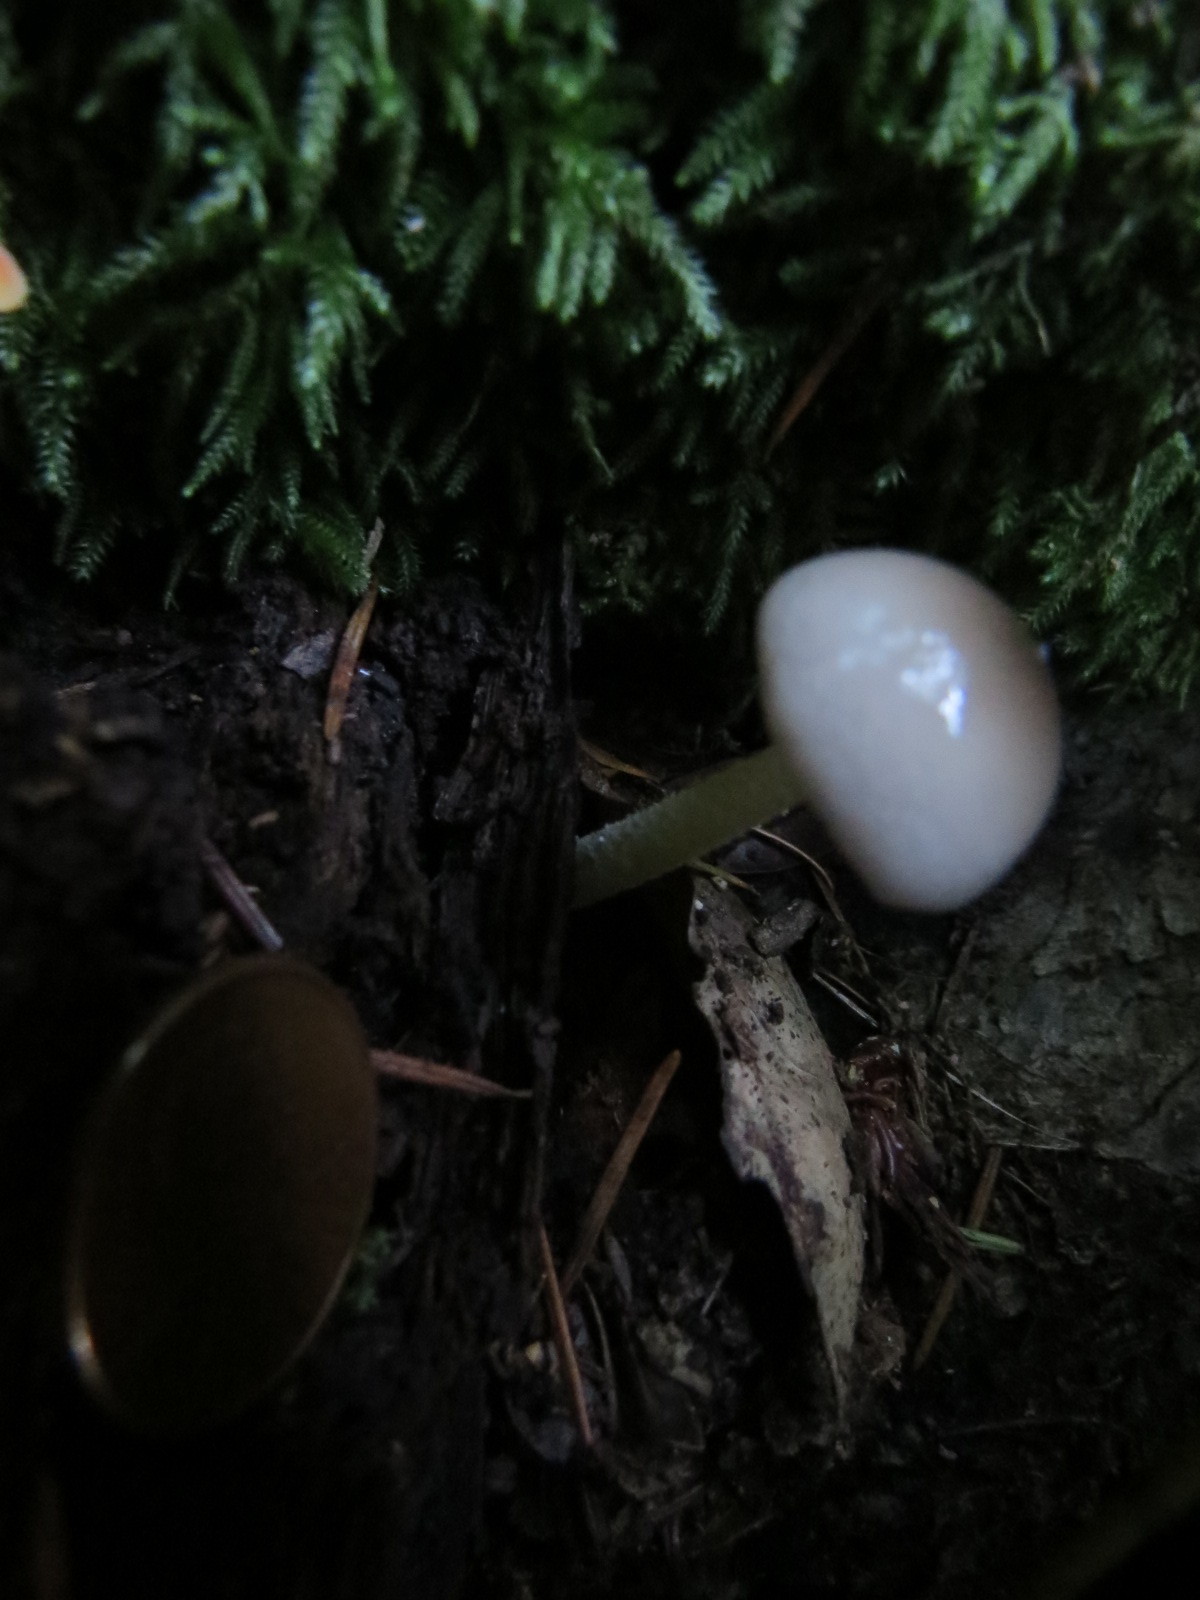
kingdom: Fungi
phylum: Basidiomycota
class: Agaricomycetes
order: Agaricales
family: Bolbitiaceae
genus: Bolbitius
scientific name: Bolbitius reticulatus
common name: Netted fieldcap
